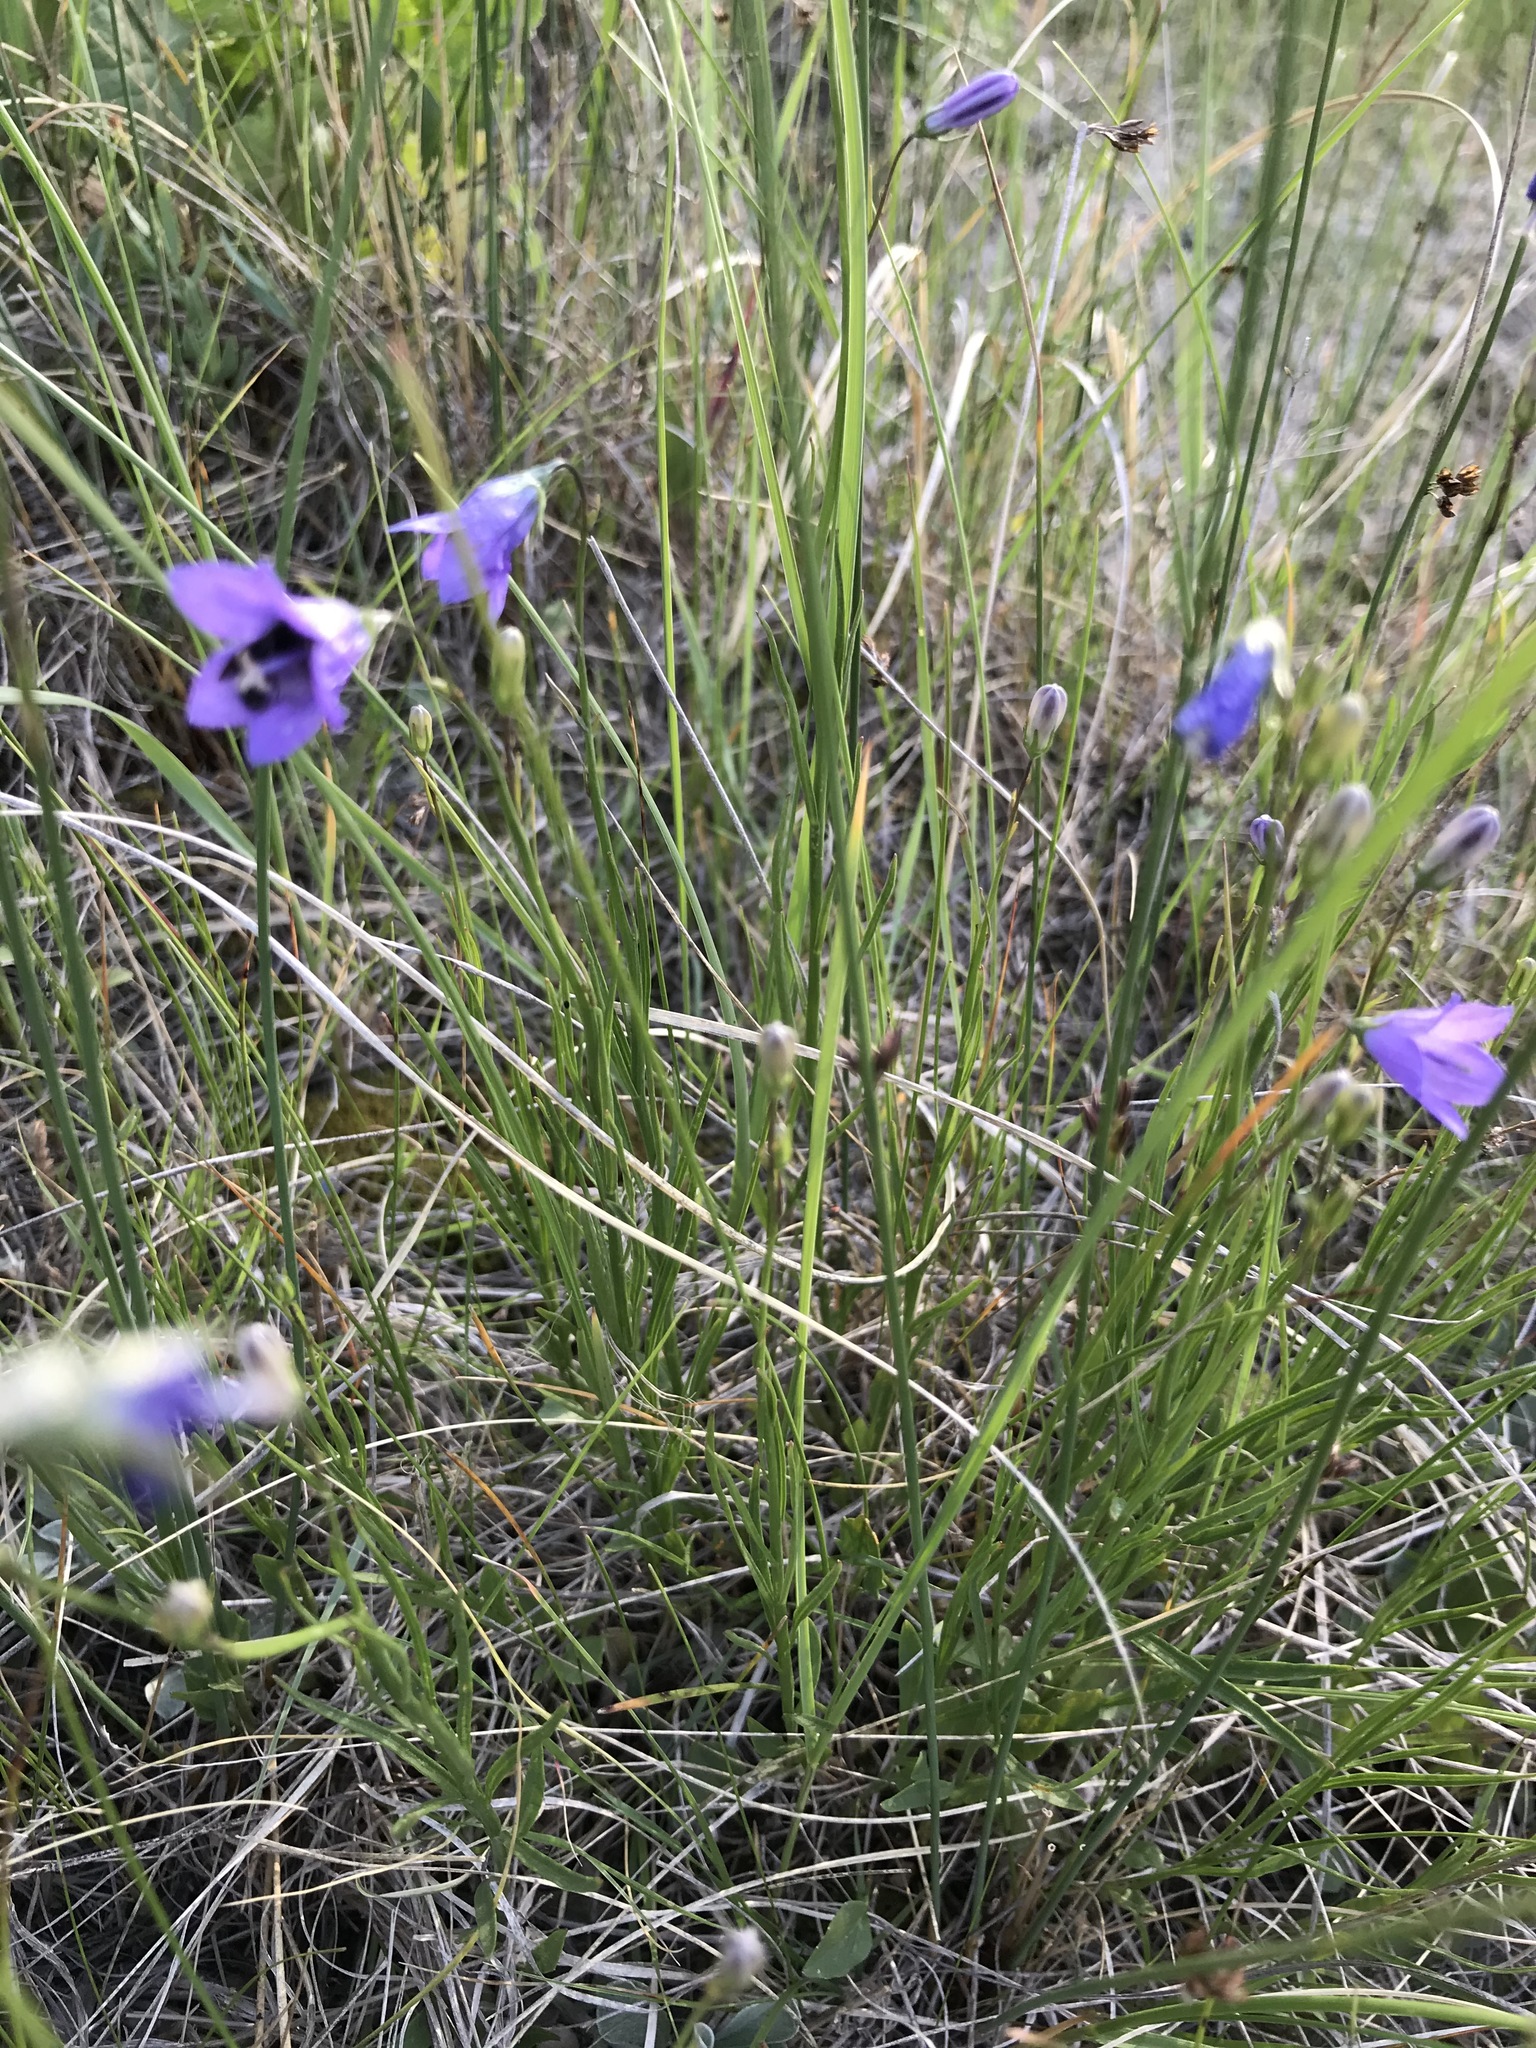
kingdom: Plantae
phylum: Tracheophyta
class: Magnoliopsida
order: Asterales
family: Campanulaceae
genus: Campanula
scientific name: Campanula petiolata
